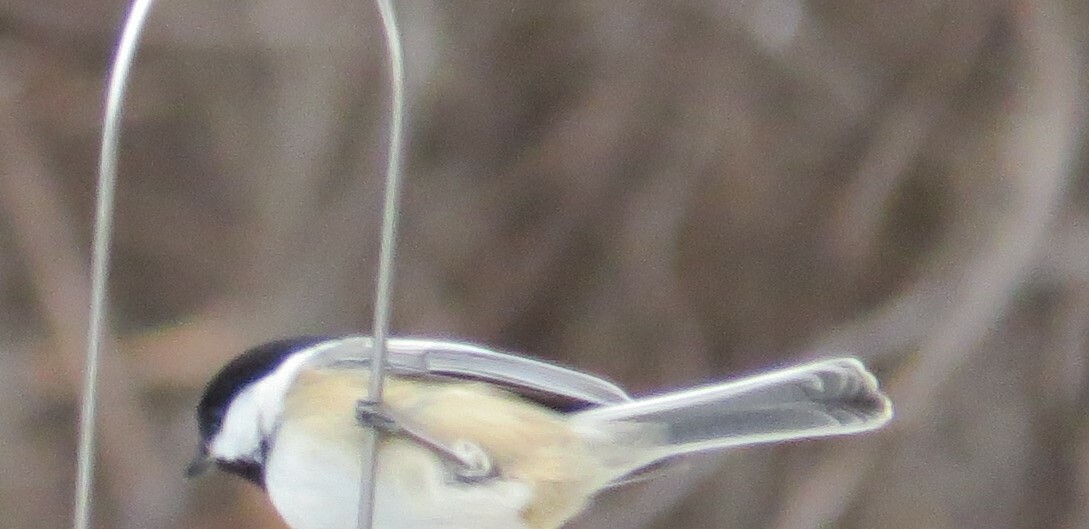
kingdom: Animalia
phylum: Chordata
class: Aves
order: Passeriformes
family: Paridae
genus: Poecile
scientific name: Poecile atricapillus
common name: Black-capped chickadee
